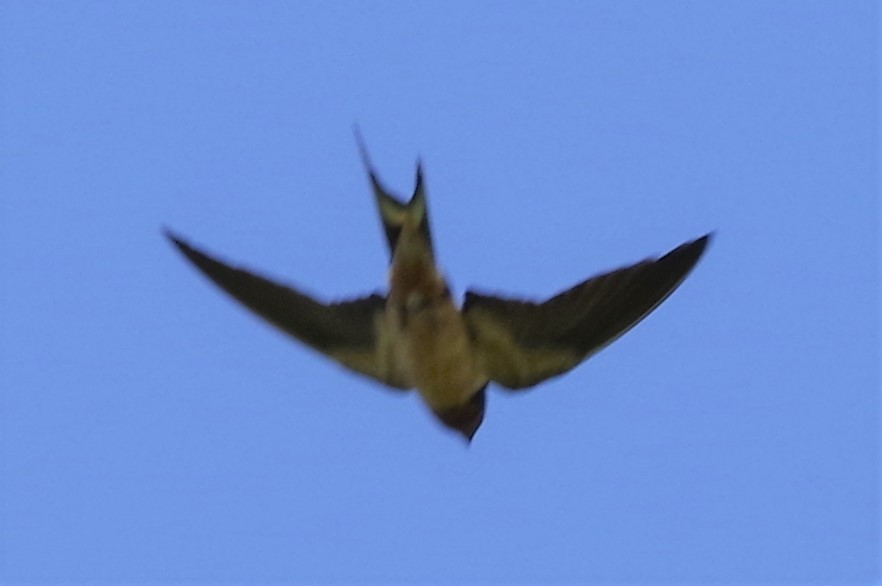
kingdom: Animalia
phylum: Chordata
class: Aves
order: Passeriformes
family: Hirundinidae
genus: Hirundo
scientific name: Hirundo rustica
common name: Barn swallow
